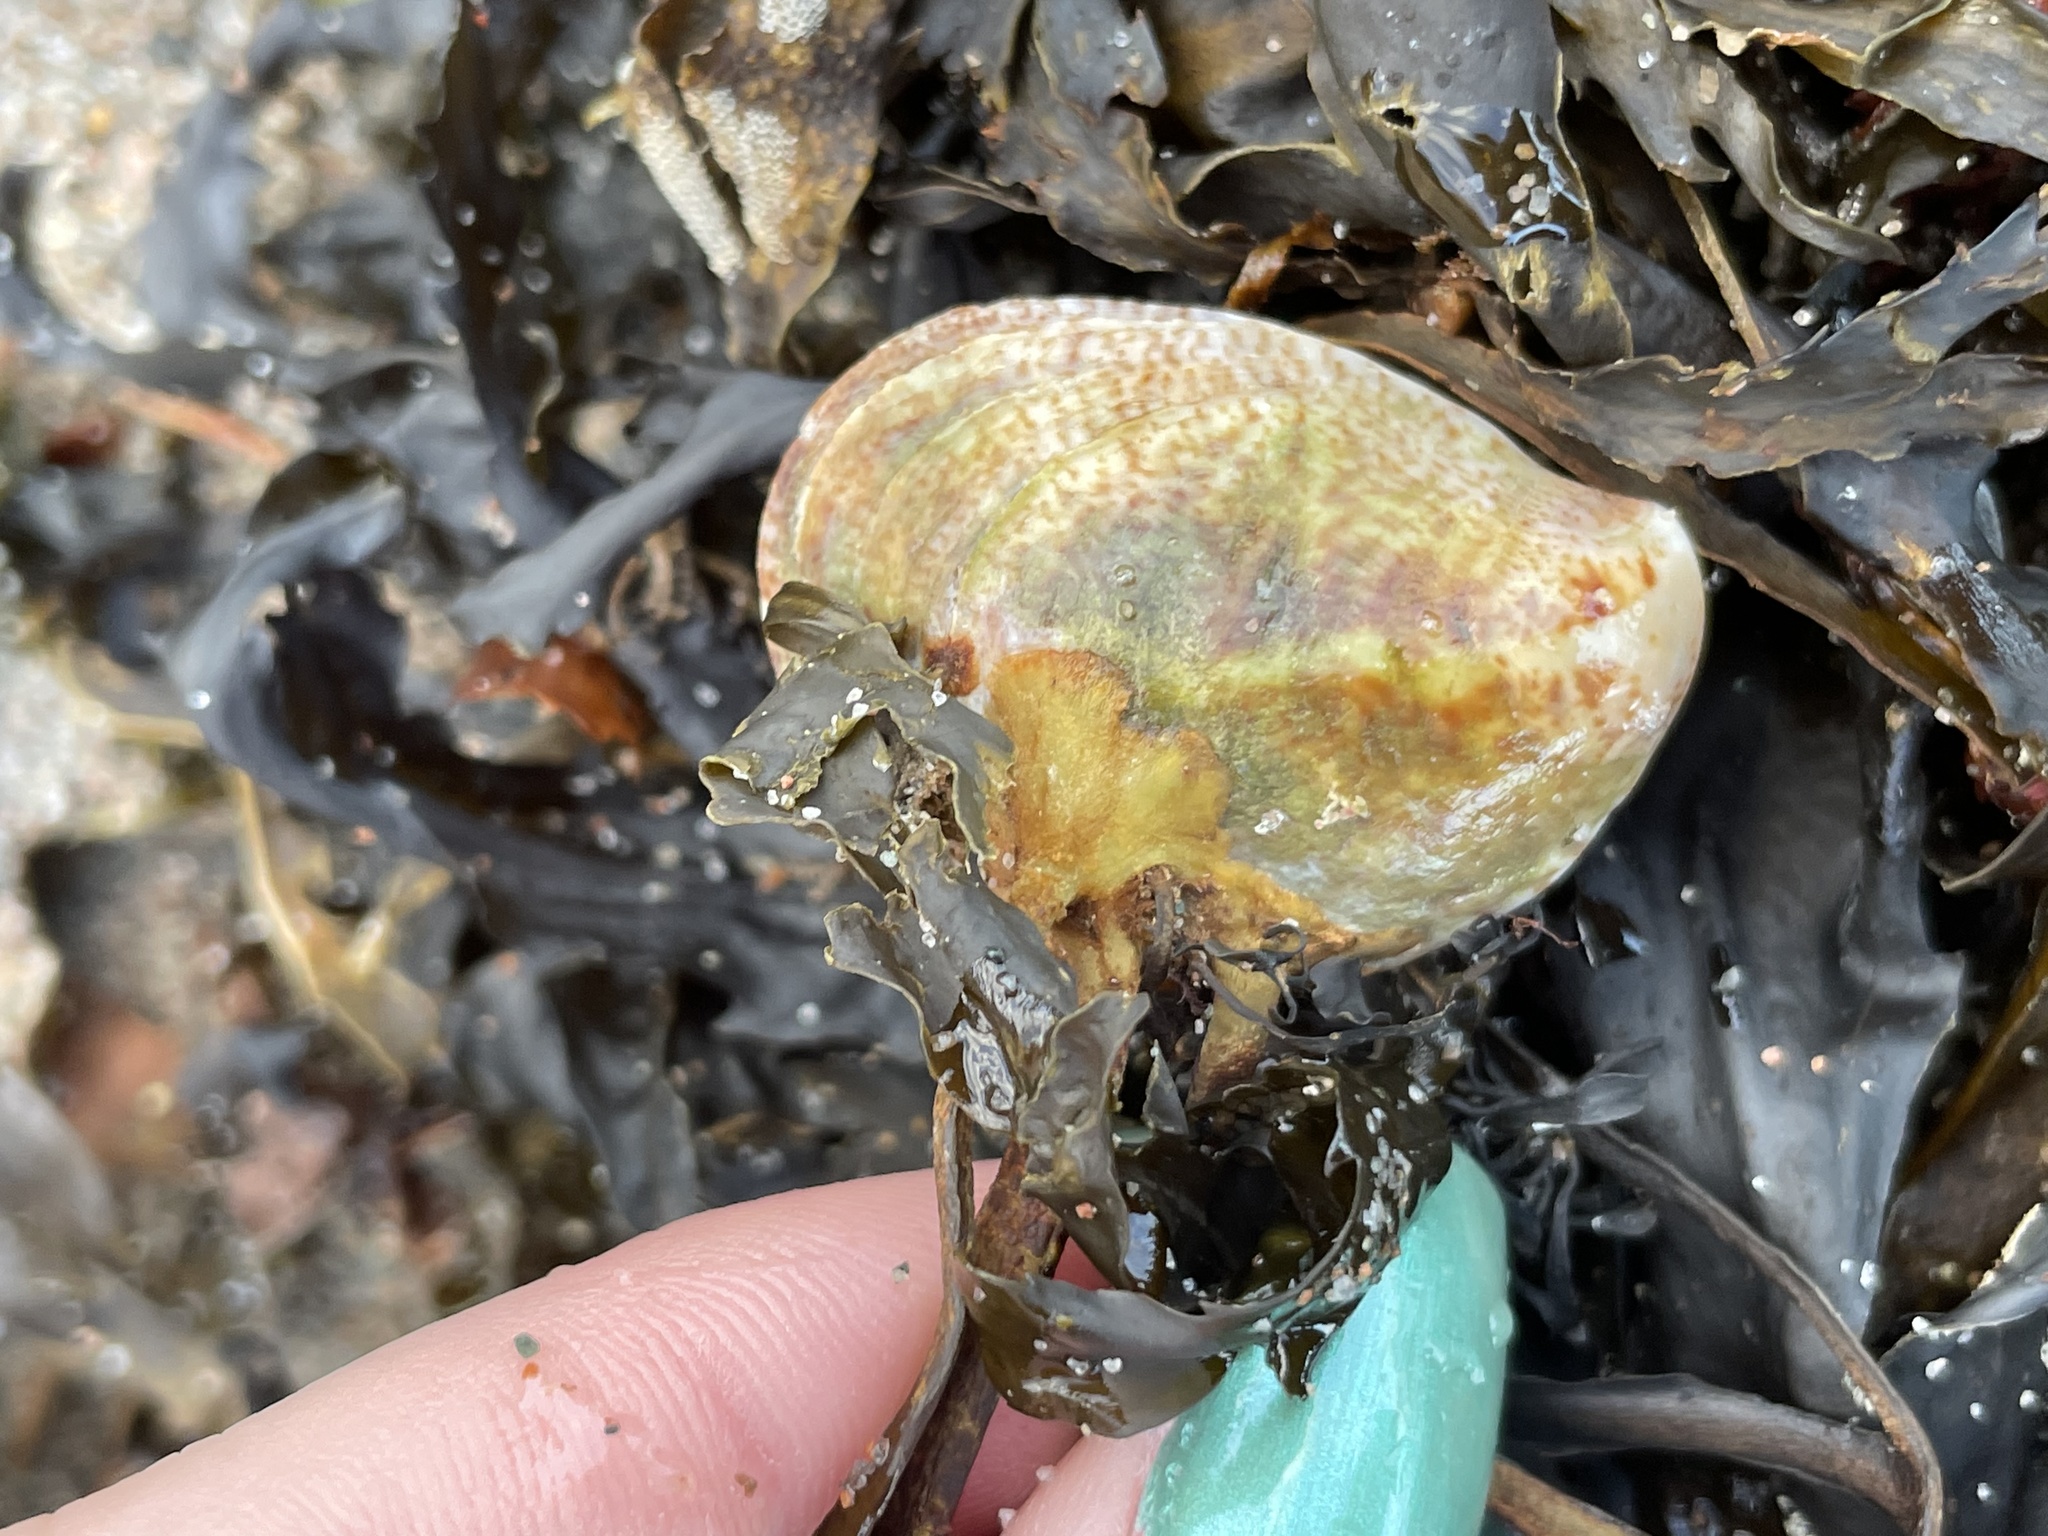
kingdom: Animalia
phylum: Mollusca
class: Gastropoda
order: Littorinimorpha
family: Calyptraeidae
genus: Crepidula
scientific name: Crepidula fornicata
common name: Slipper limpet
